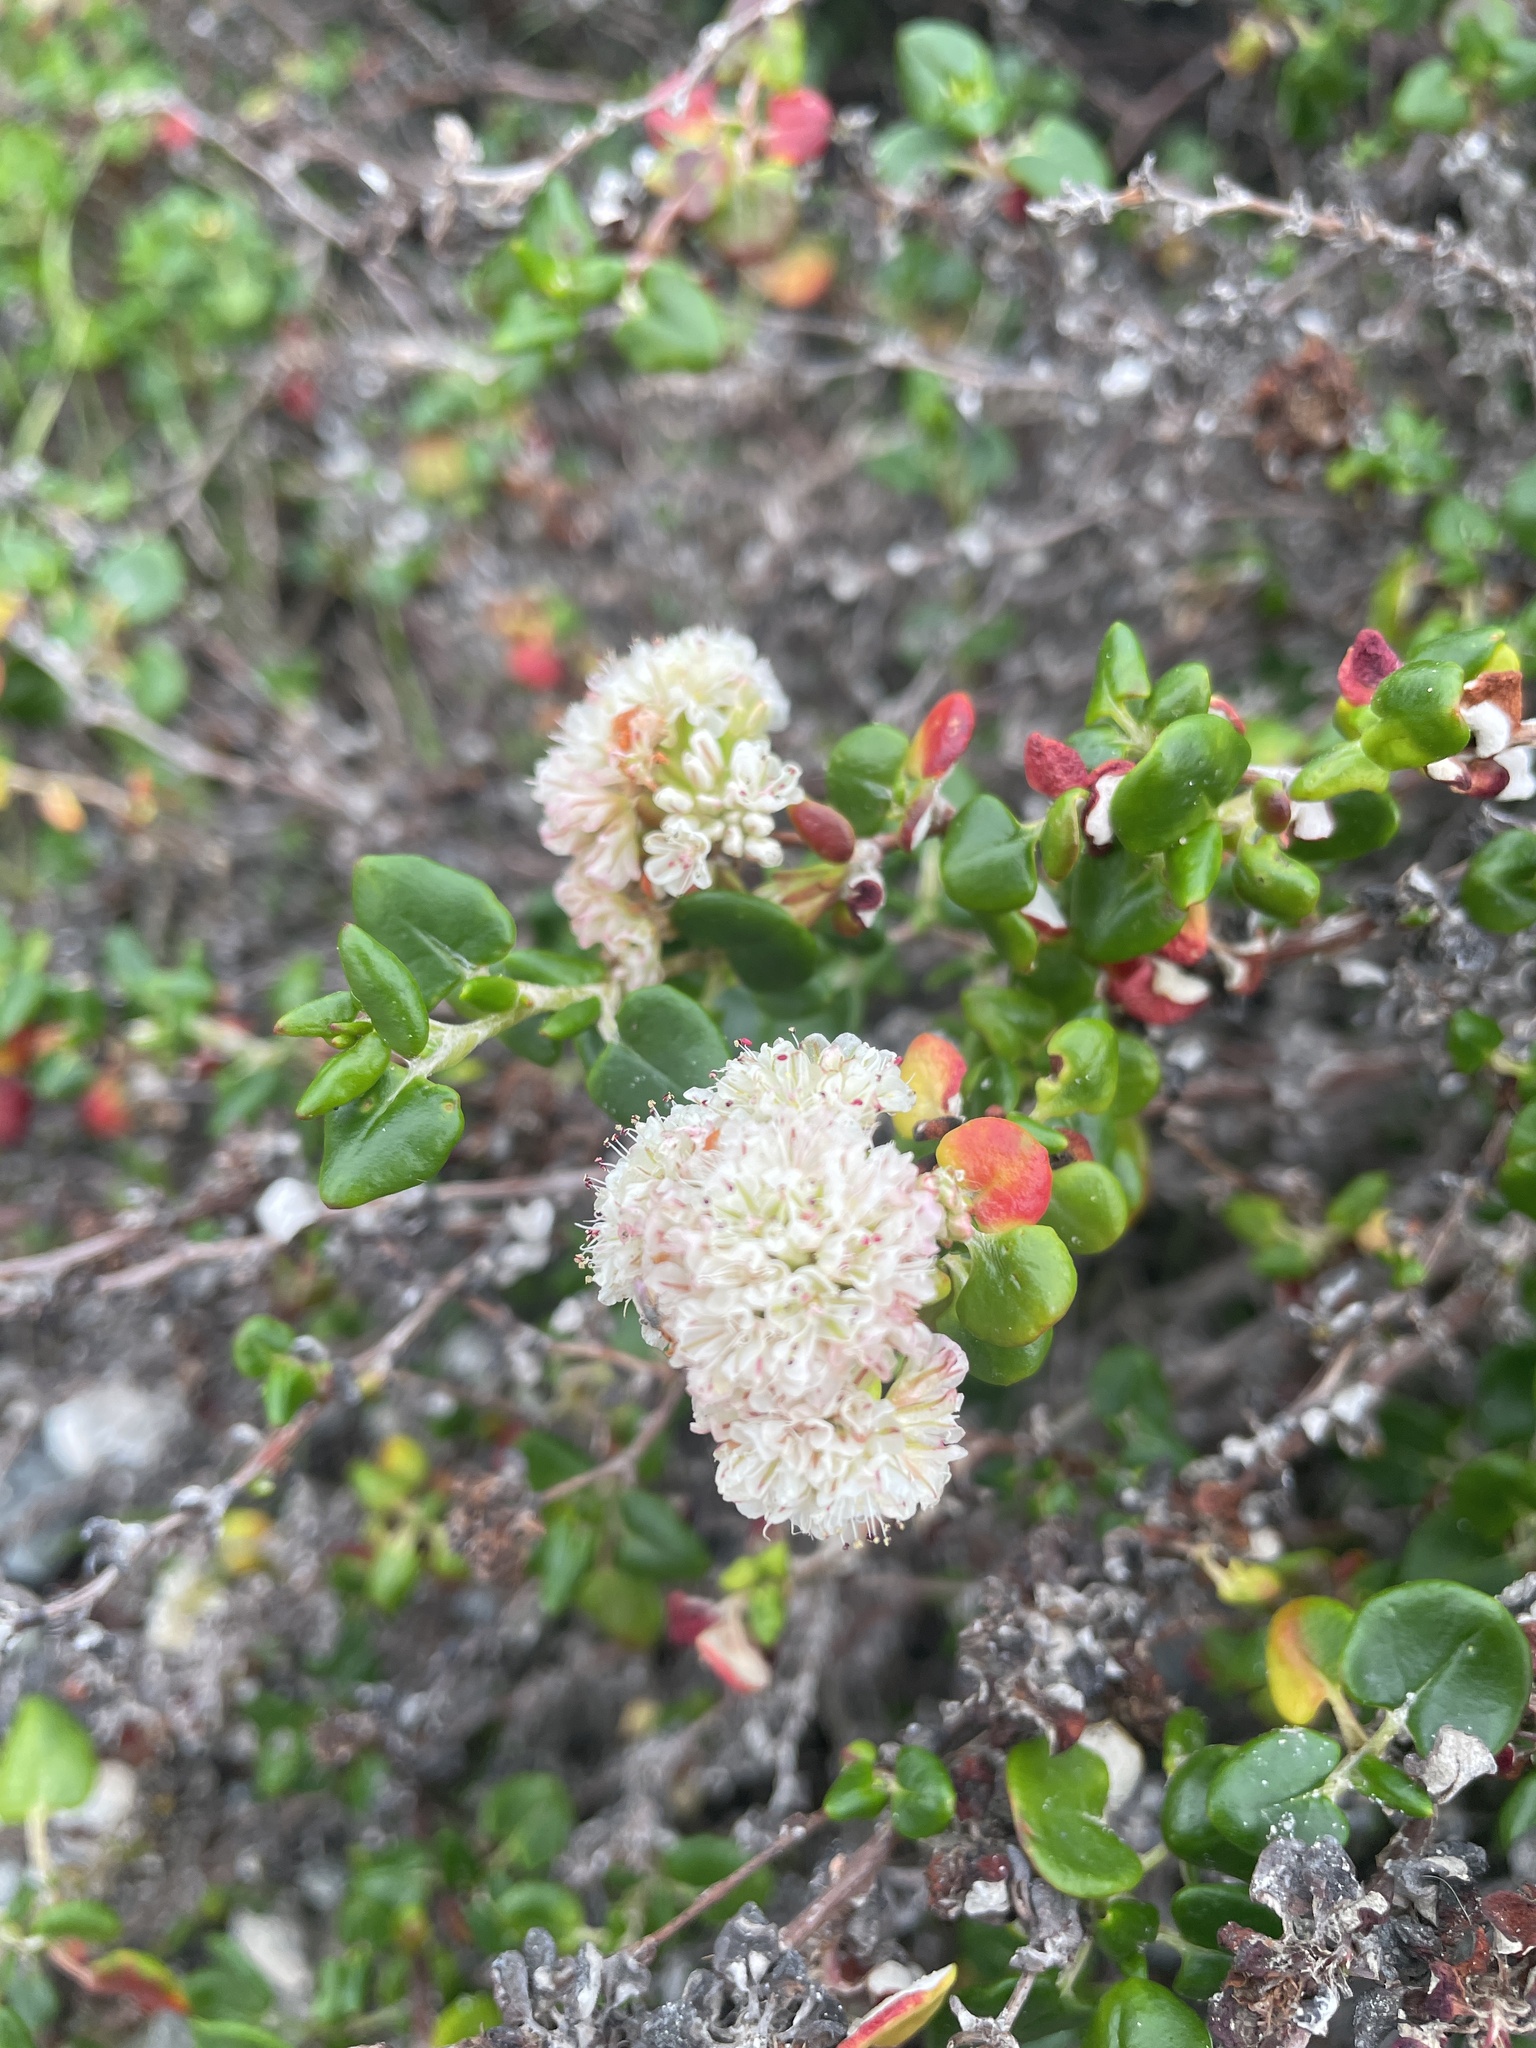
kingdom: Plantae
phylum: Tracheophyta
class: Magnoliopsida
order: Caryophyllales
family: Polygonaceae
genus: Eriogonum
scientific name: Eriogonum parvifolium
